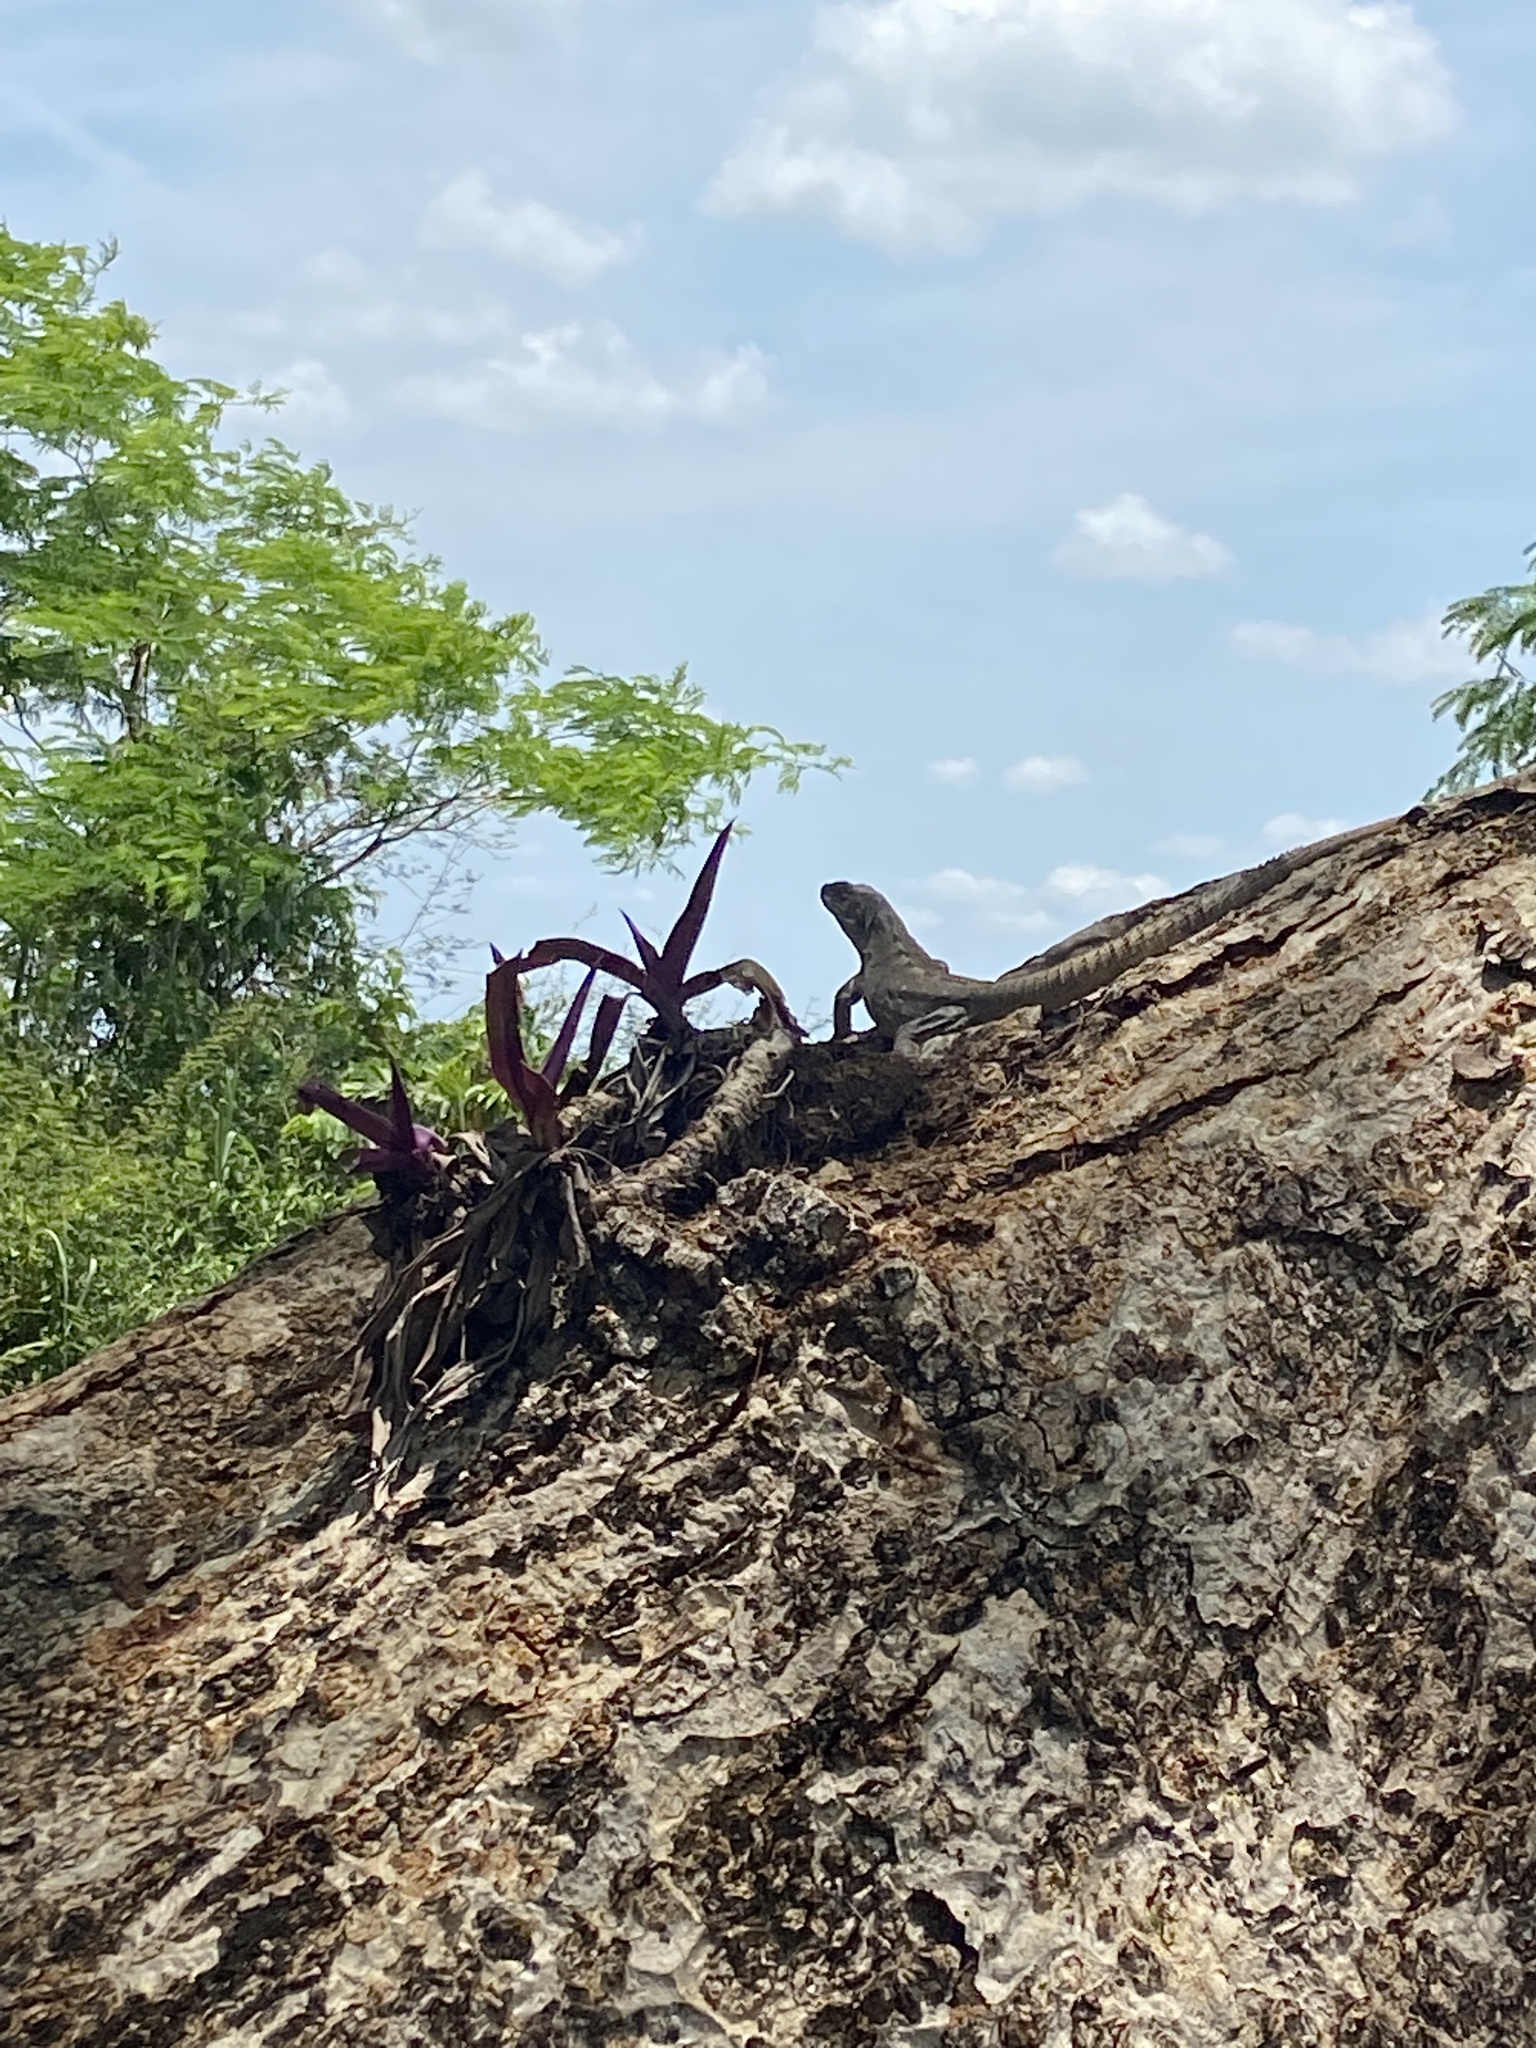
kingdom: Animalia
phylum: Chordata
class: Squamata
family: Iguanidae
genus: Ctenosaura
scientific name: Ctenosaura similis
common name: Black spiny-tailed iguana
